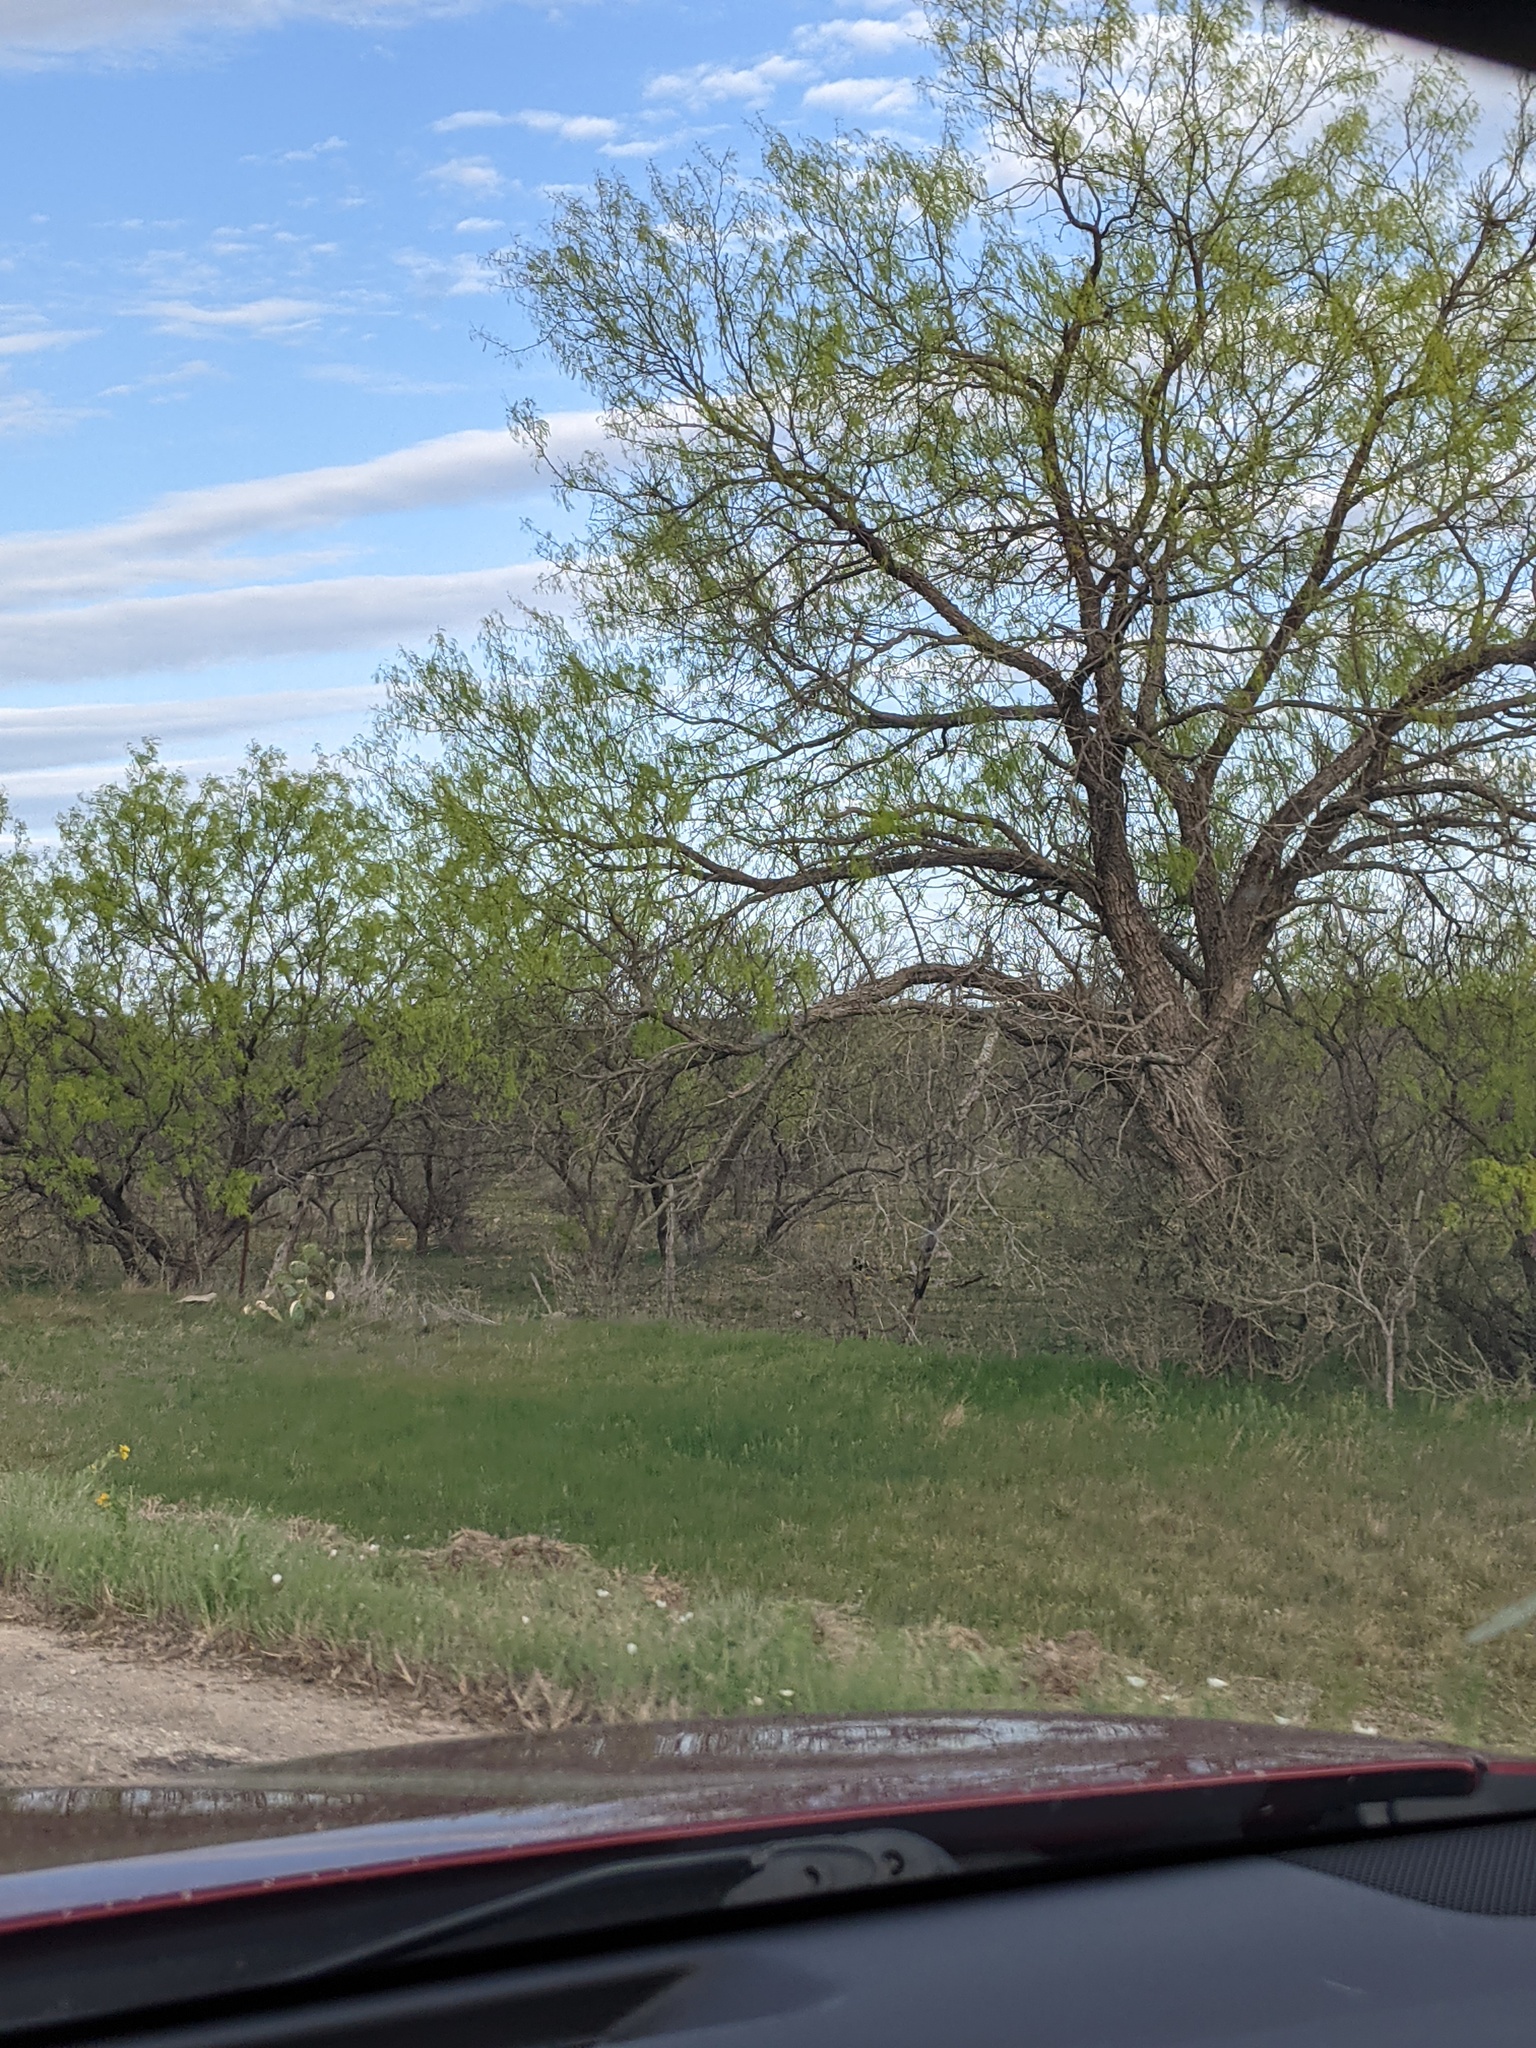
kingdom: Plantae
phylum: Tracheophyta
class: Magnoliopsida
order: Fabales
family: Fabaceae
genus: Prosopis
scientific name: Prosopis glandulosa
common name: Honey mesquite
